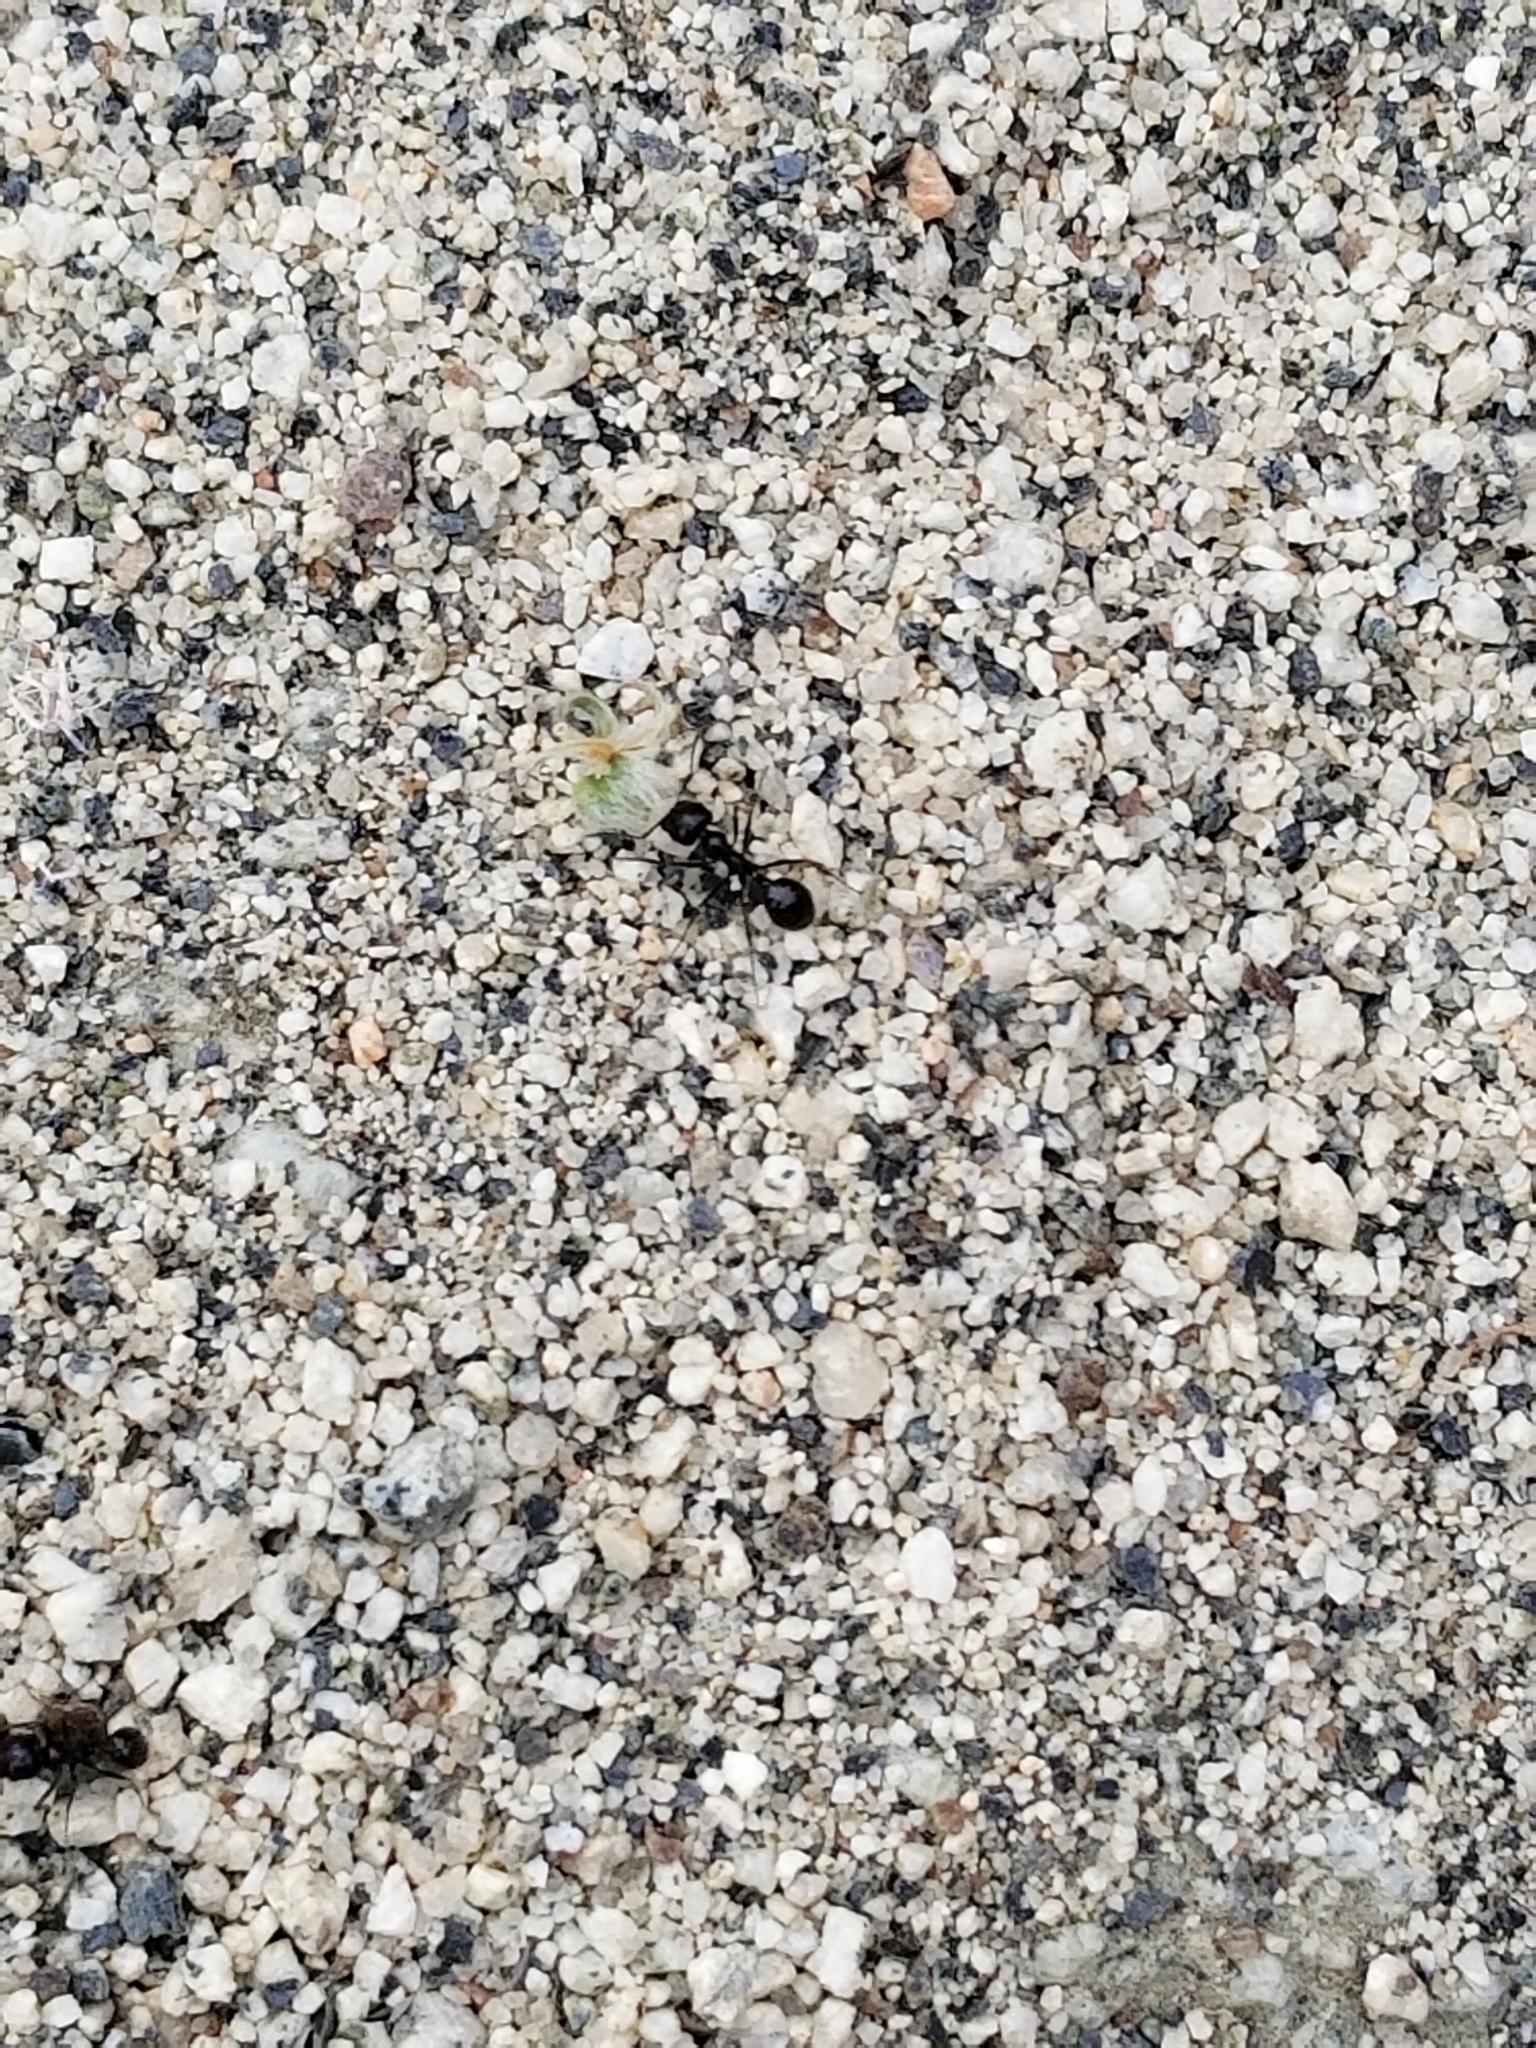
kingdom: Animalia
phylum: Arthropoda
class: Insecta
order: Hymenoptera
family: Formicidae
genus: Messor
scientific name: Messor pergandei
